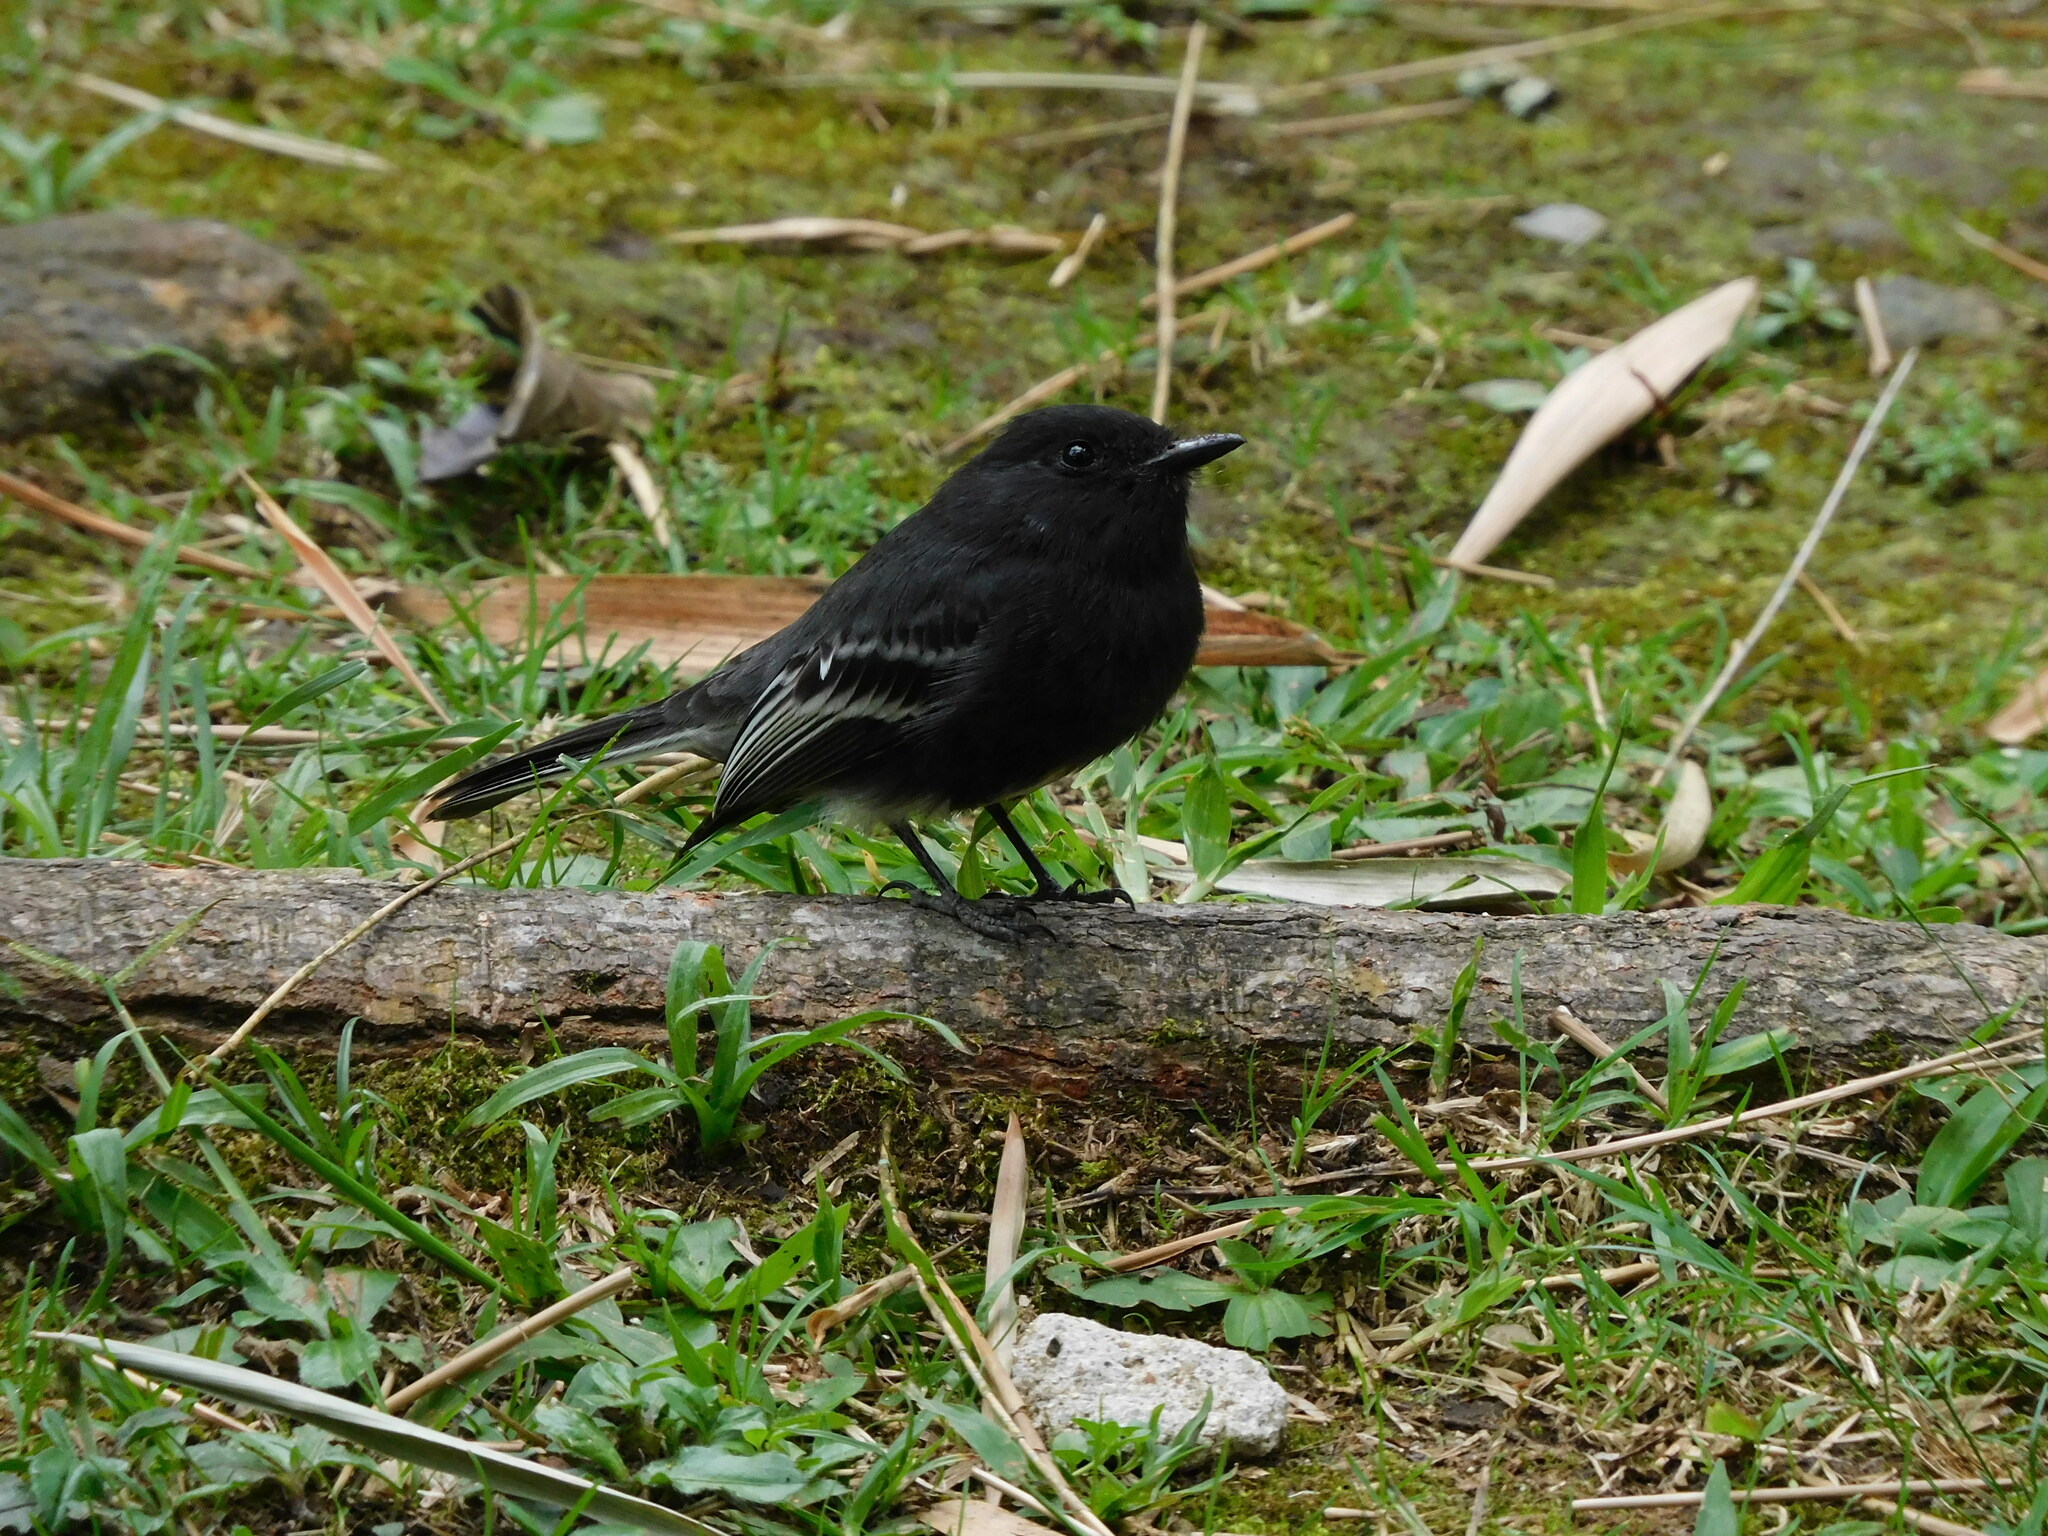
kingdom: Animalia
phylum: Chordata
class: Aves
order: Passeriformes
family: Tyrannidae
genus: Sayornis
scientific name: Sayornis nigricans
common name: Black phoebe
